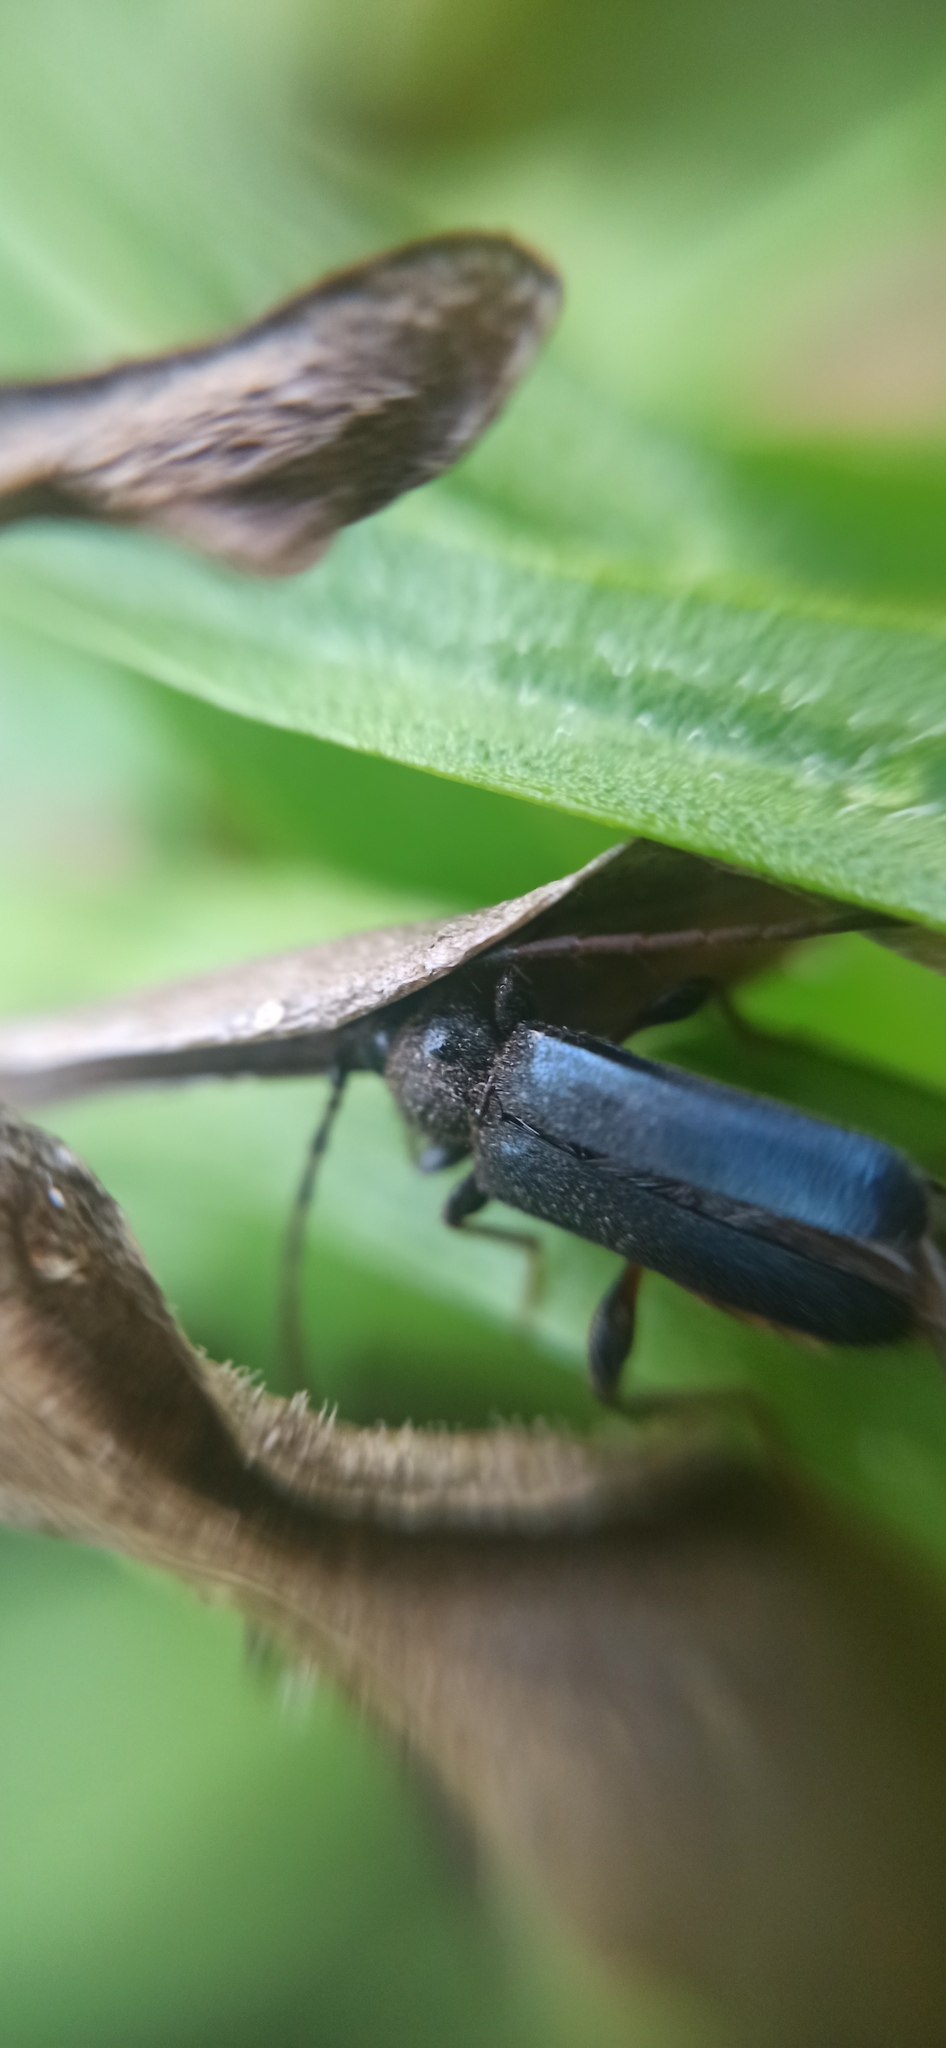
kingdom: Animalia
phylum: Arthropoda
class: Insecta
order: Coleoptera
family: Cerambycidae
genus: Phymatodes
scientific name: Phymatodes testaceus
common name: Long-horned beetle
